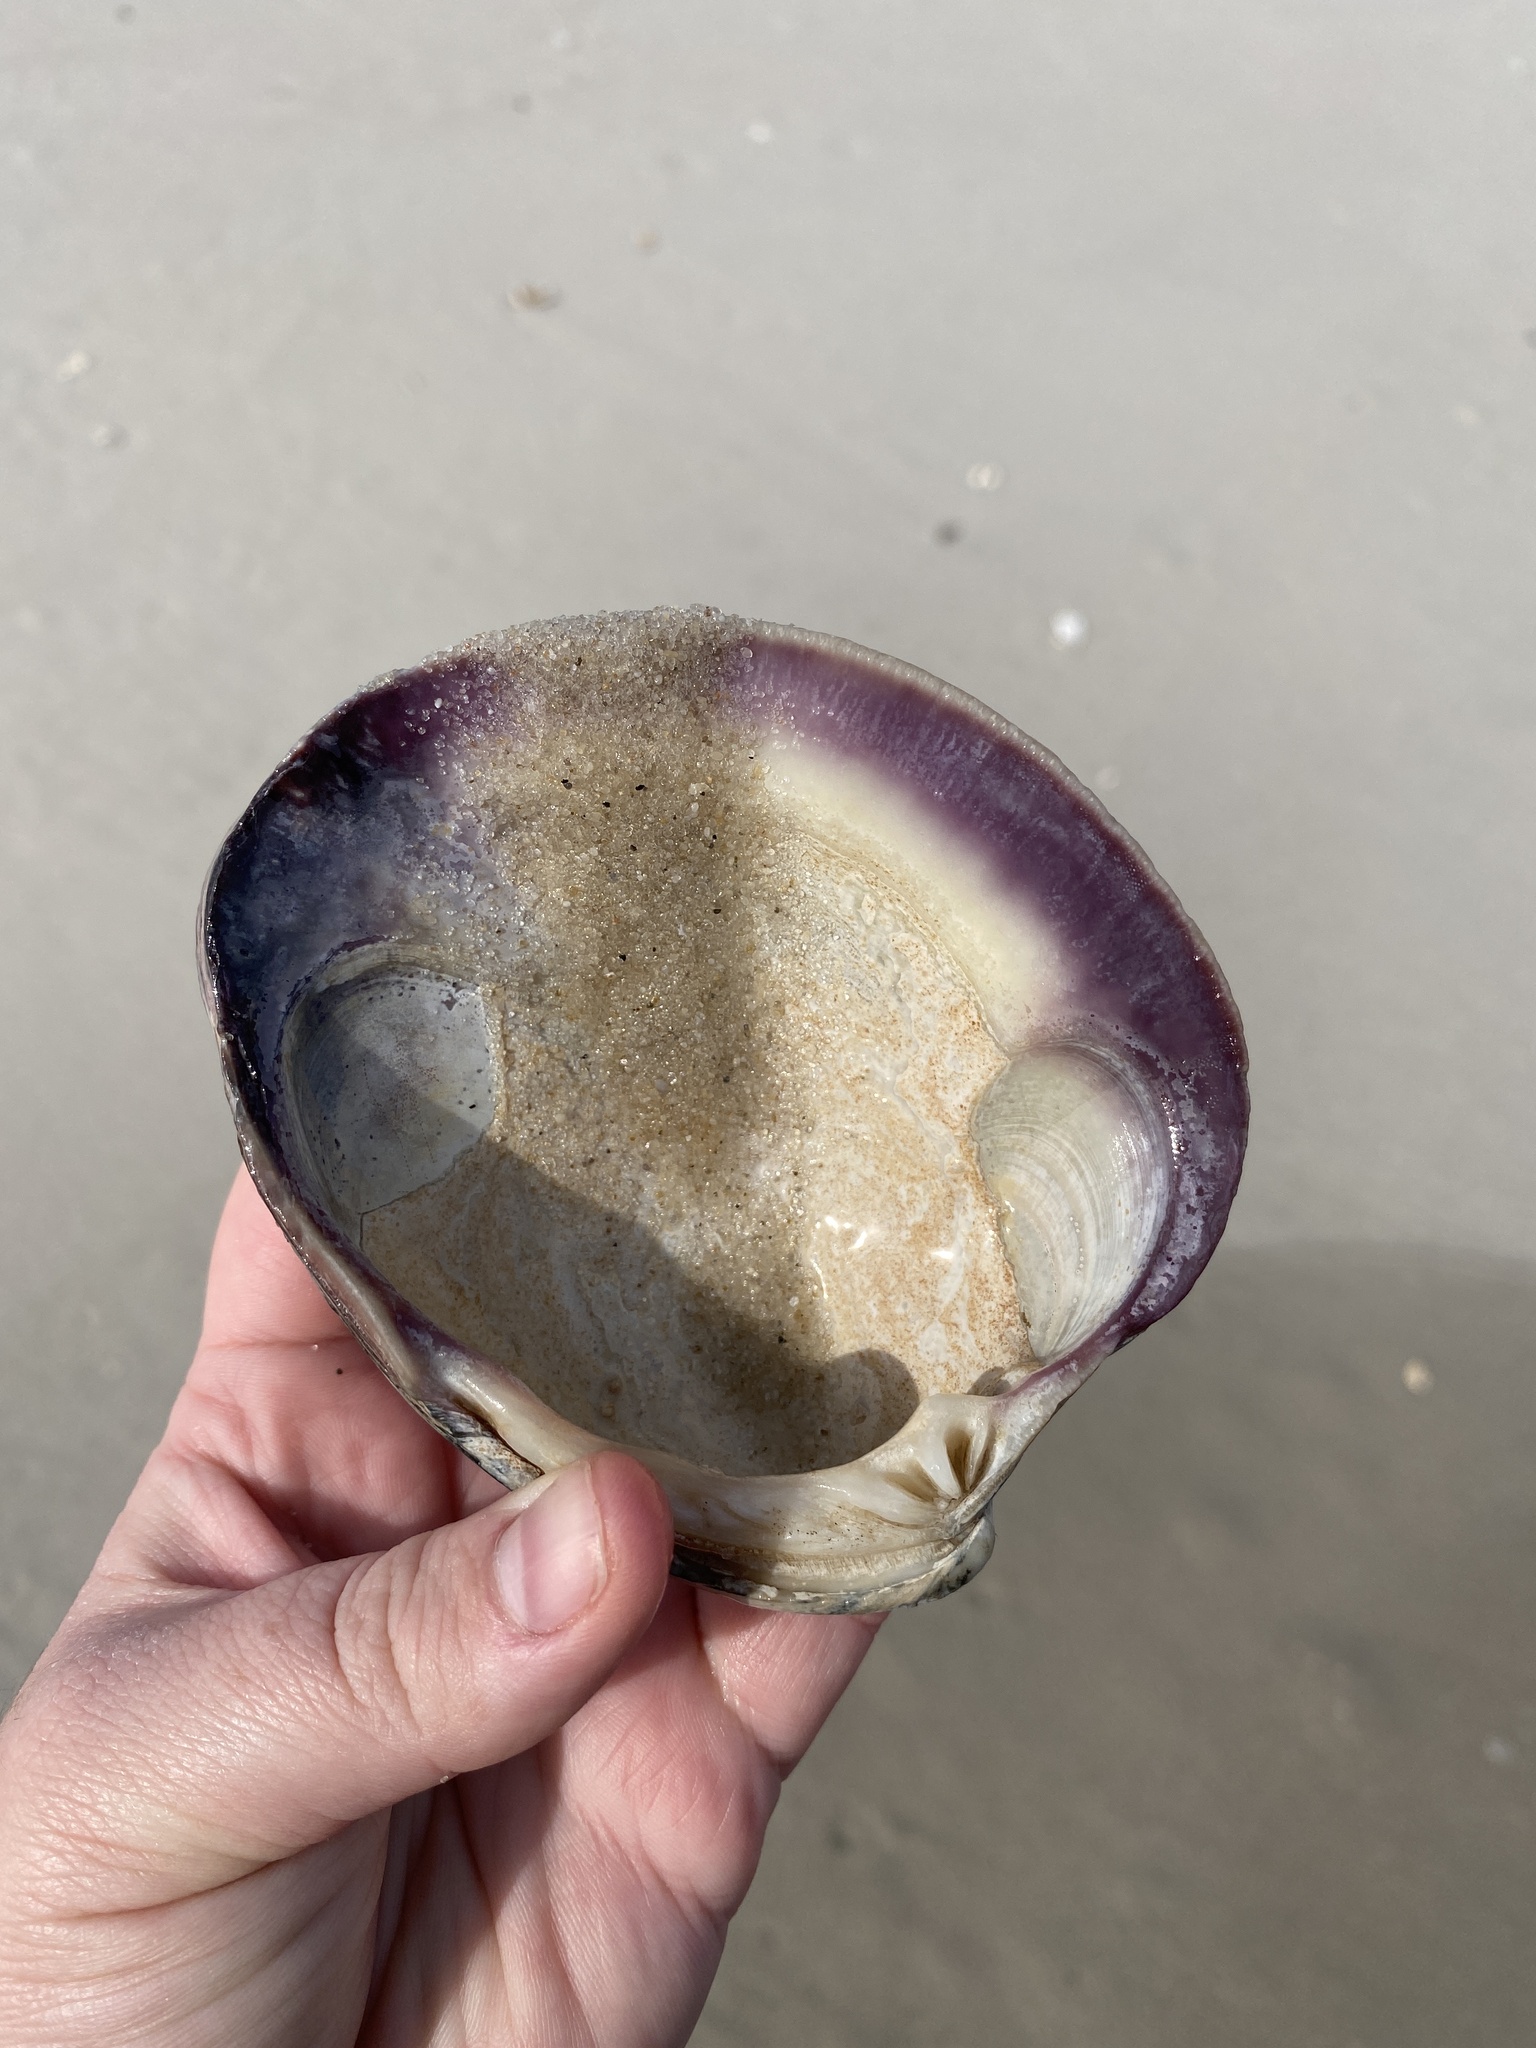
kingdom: Animalia
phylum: Mollusca
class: Bivalvia
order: Venerida
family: Veneridae
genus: Mercenaria
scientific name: Mercenaria mercenaria
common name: American hard-shelled clam
